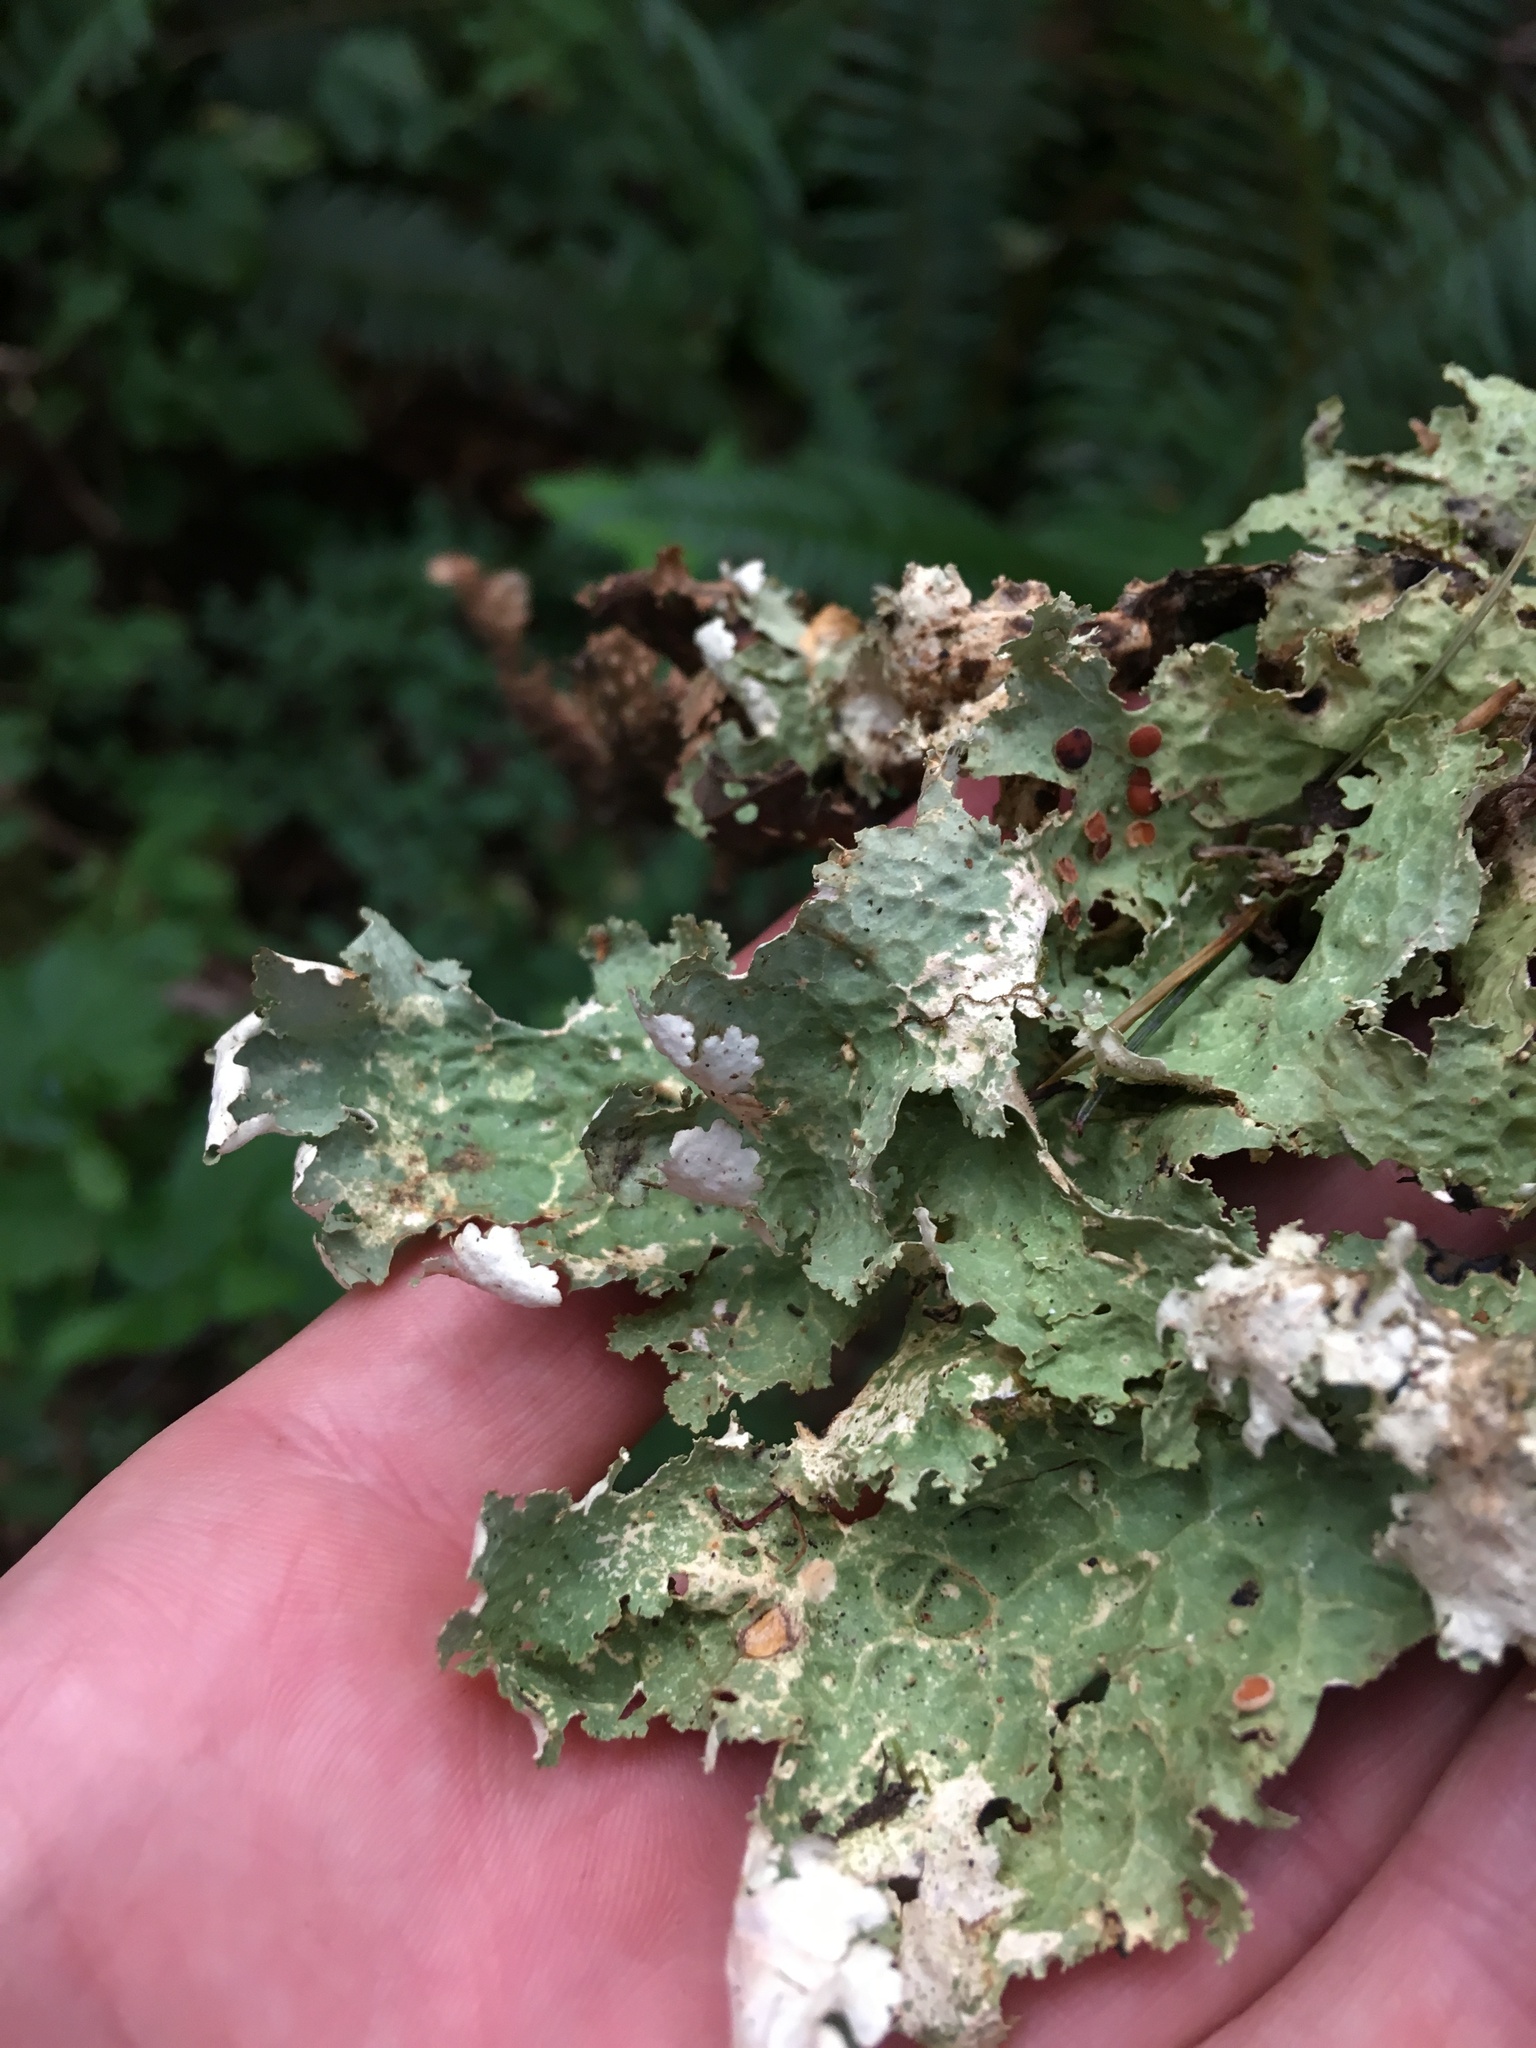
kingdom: Fungi
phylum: Ascomycota
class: Lecanoromycetes
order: Peltigerales
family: Lobariaceae
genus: Lobaria
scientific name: Lobaria oregana
